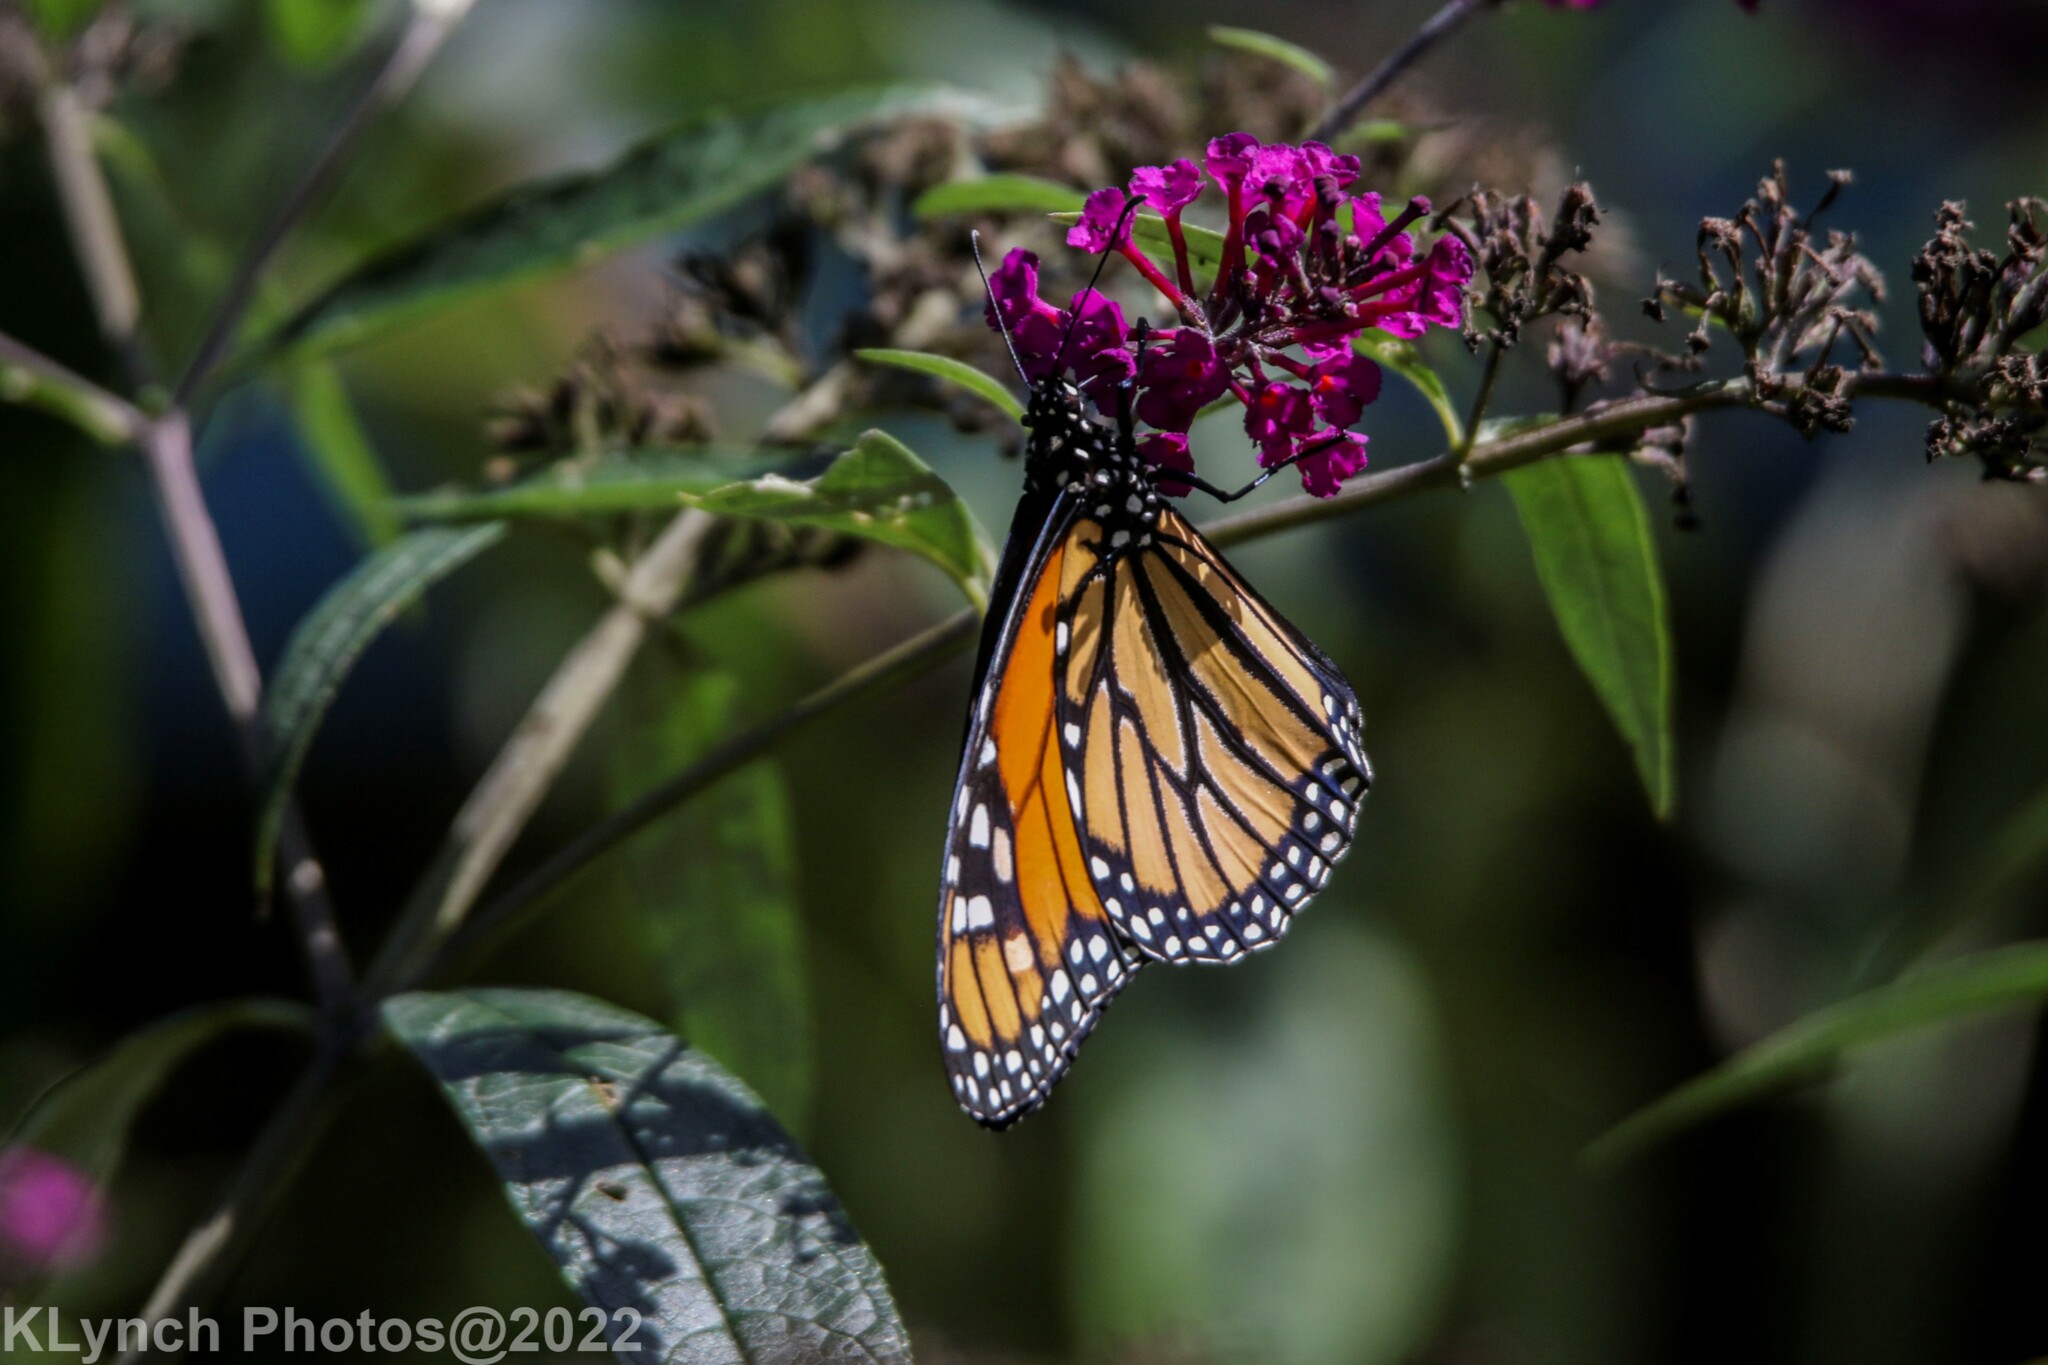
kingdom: Animalia
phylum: Arthropoda
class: Insecta
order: Lepidoptera
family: Nymphalidae
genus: Danaus
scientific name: Danaus plexippus
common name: Monarch
